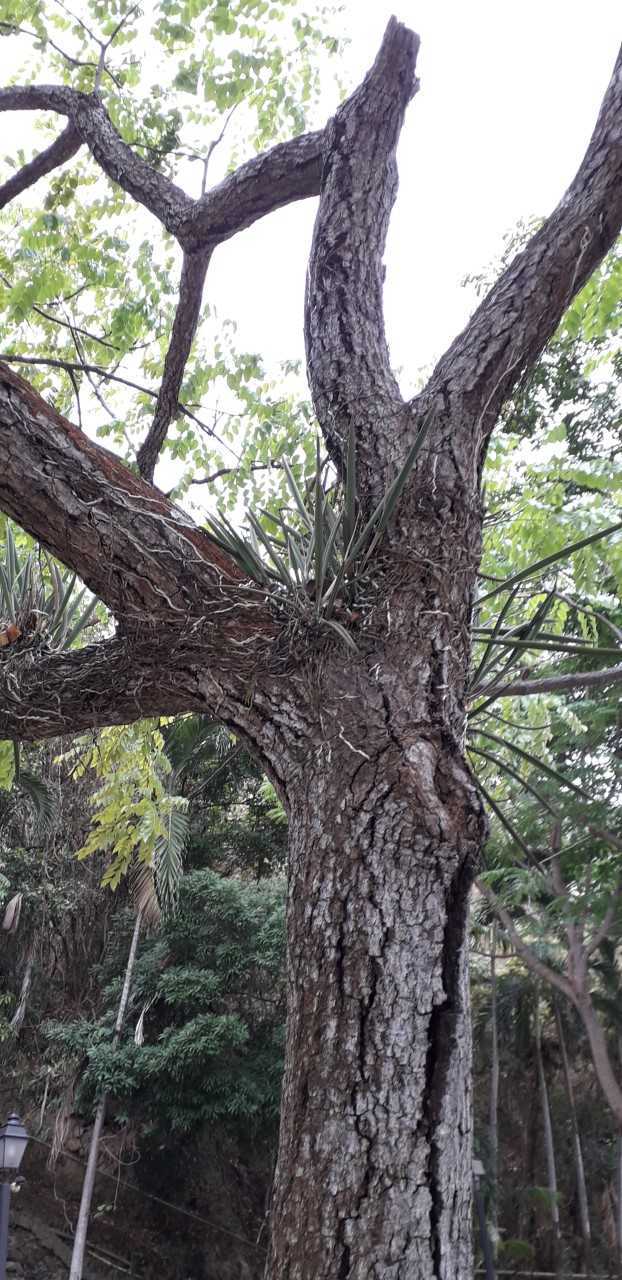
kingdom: Plantae
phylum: Tracheophyta
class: Liliopsida
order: Asparagales
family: Orchidaceae
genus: Brassavola
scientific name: Brassavola nodosa
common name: Lady of the night
